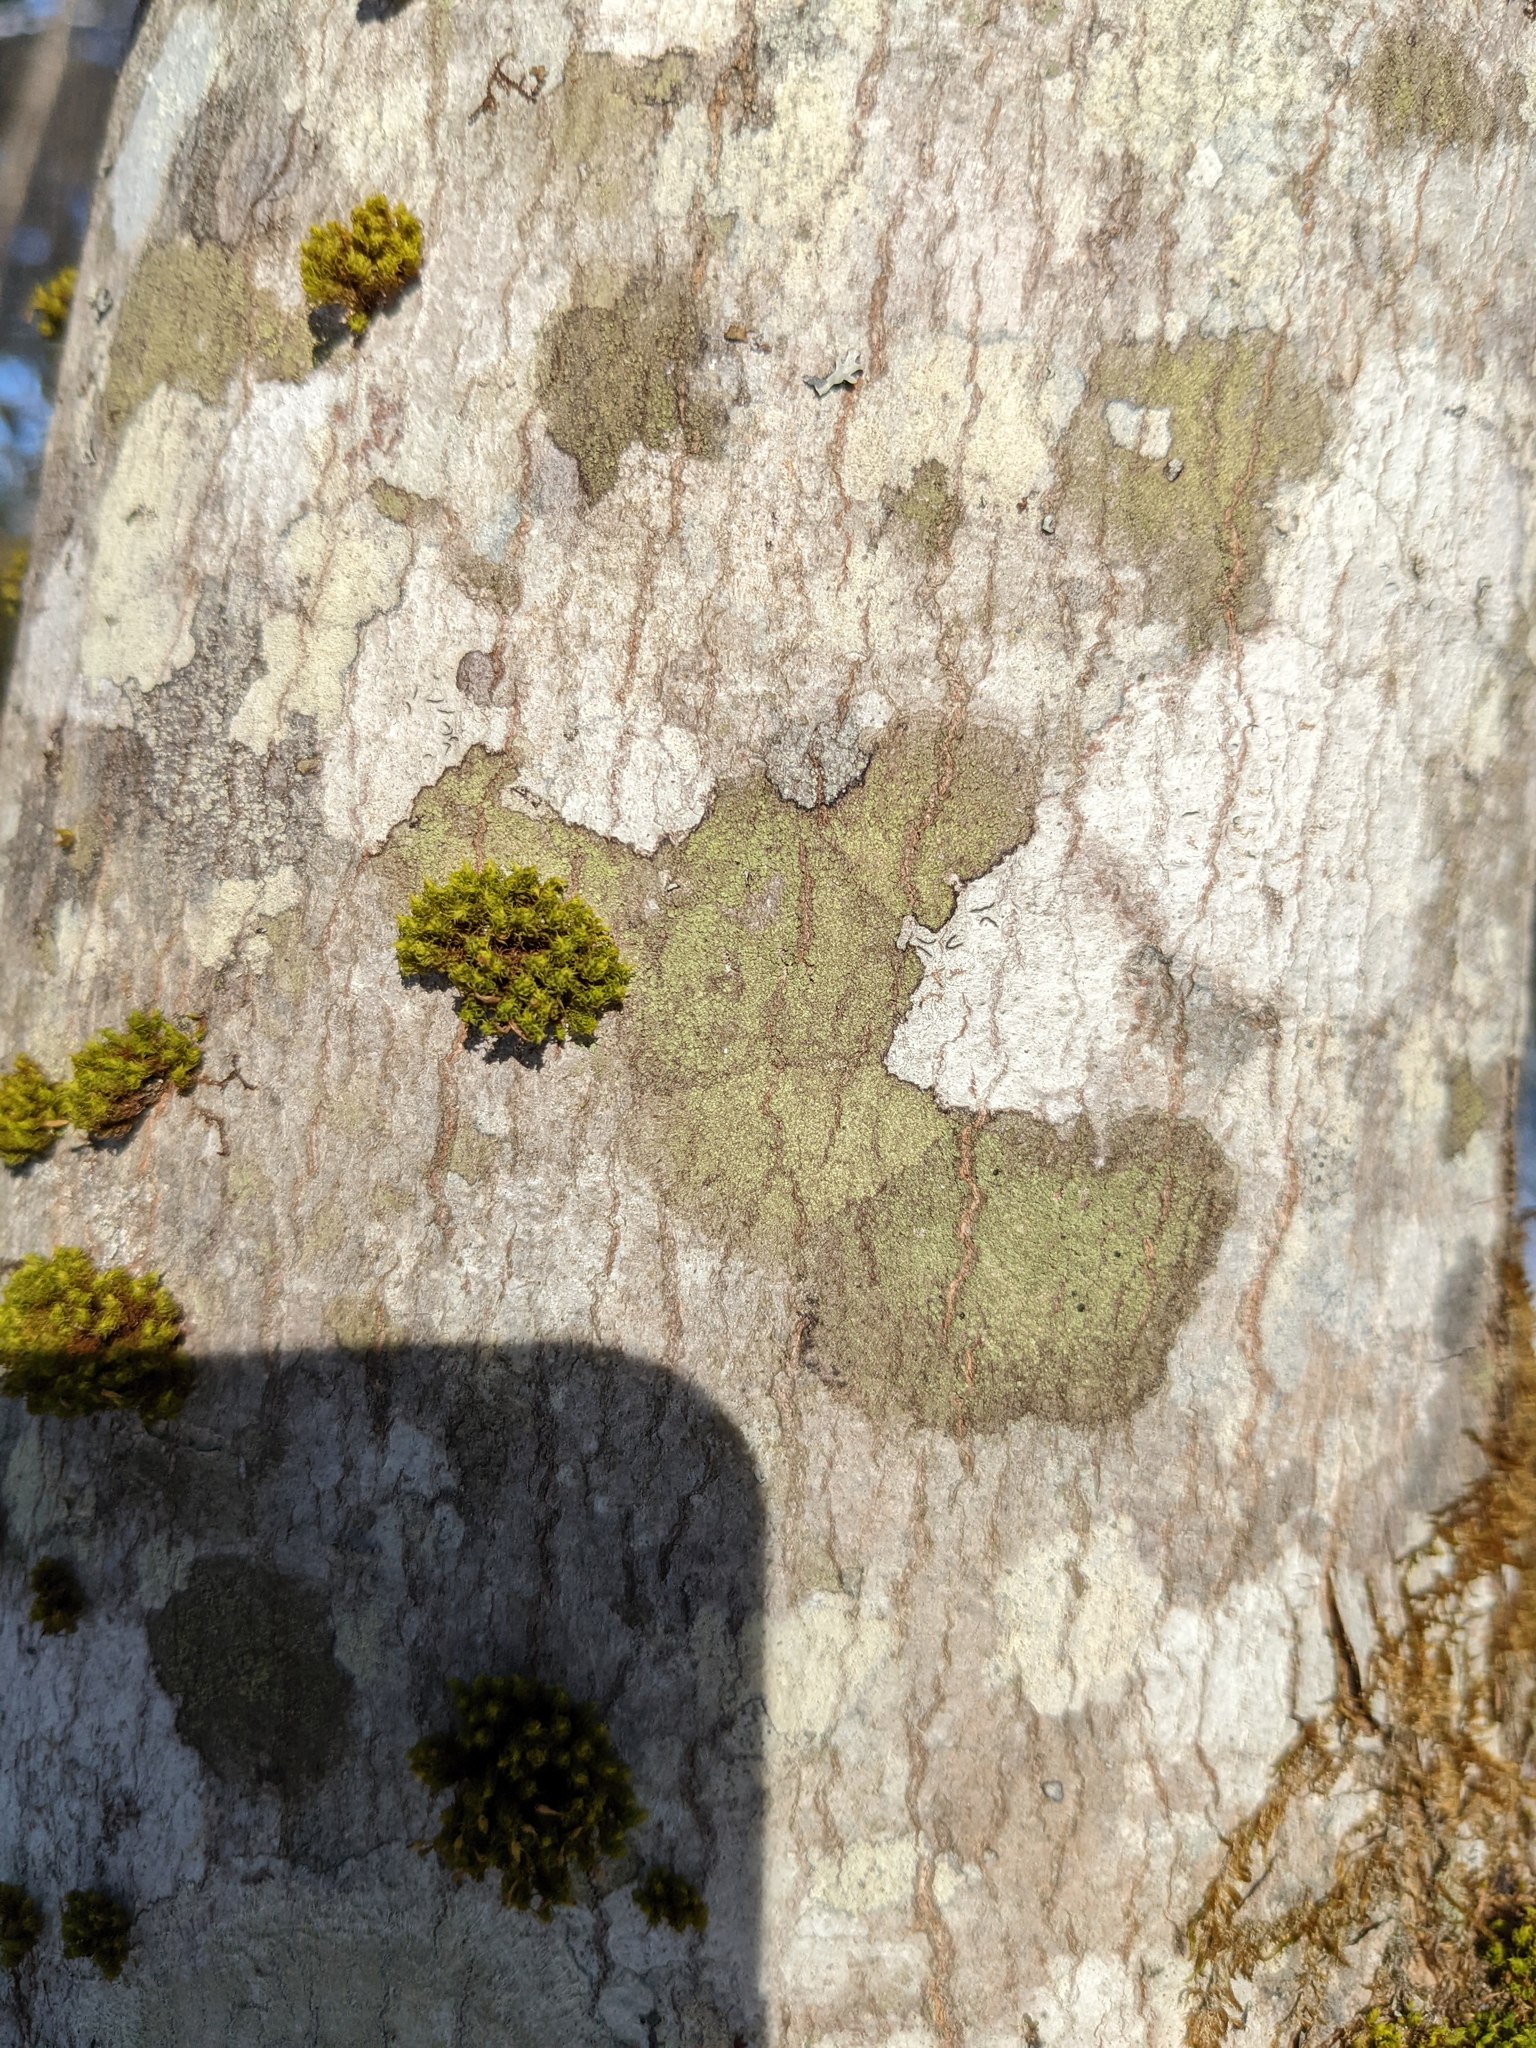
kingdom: Plantae
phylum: Bryophyta
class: Bryopsida
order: Orthotrichales
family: Orthotrichaceae
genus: Ulota
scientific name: Ulota crispa
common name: Crisped pincushion moss
